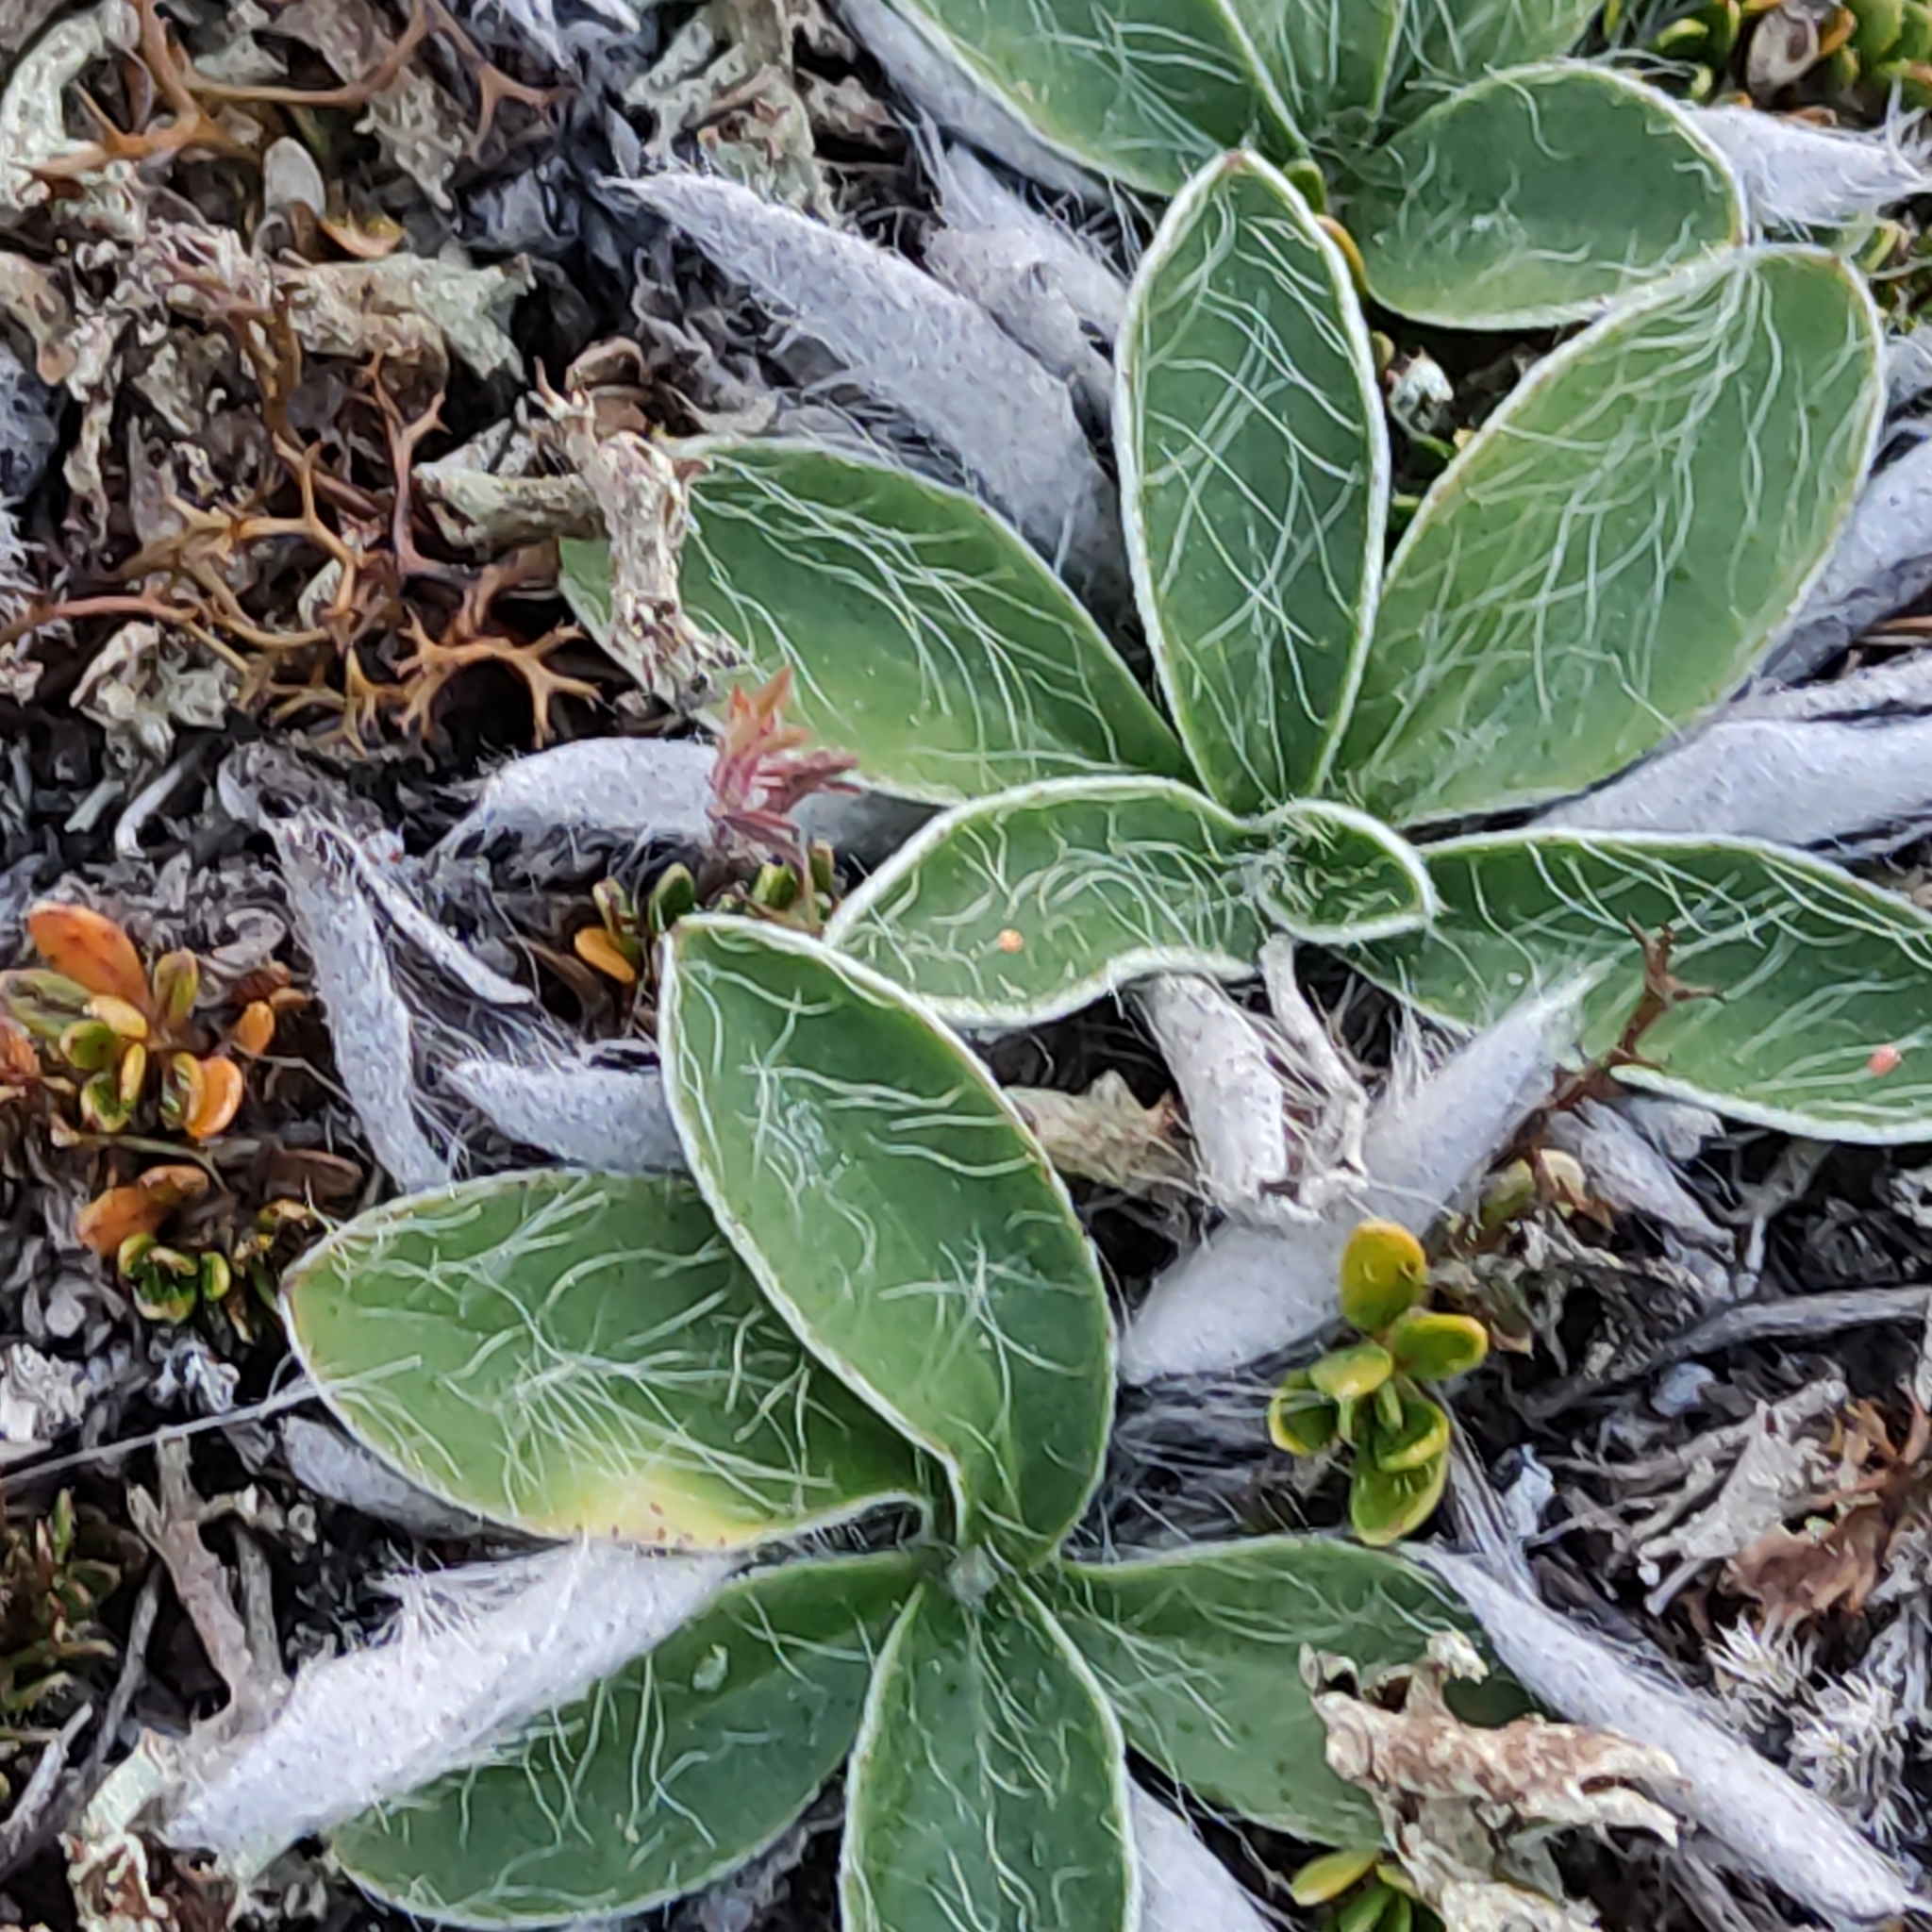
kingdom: Plantae
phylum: Tracheophyta
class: Magnoliopsida
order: Asterales
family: Asteraceae
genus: Pilosella
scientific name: Pilosella officinarum
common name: Mouse-ear hawkweed
